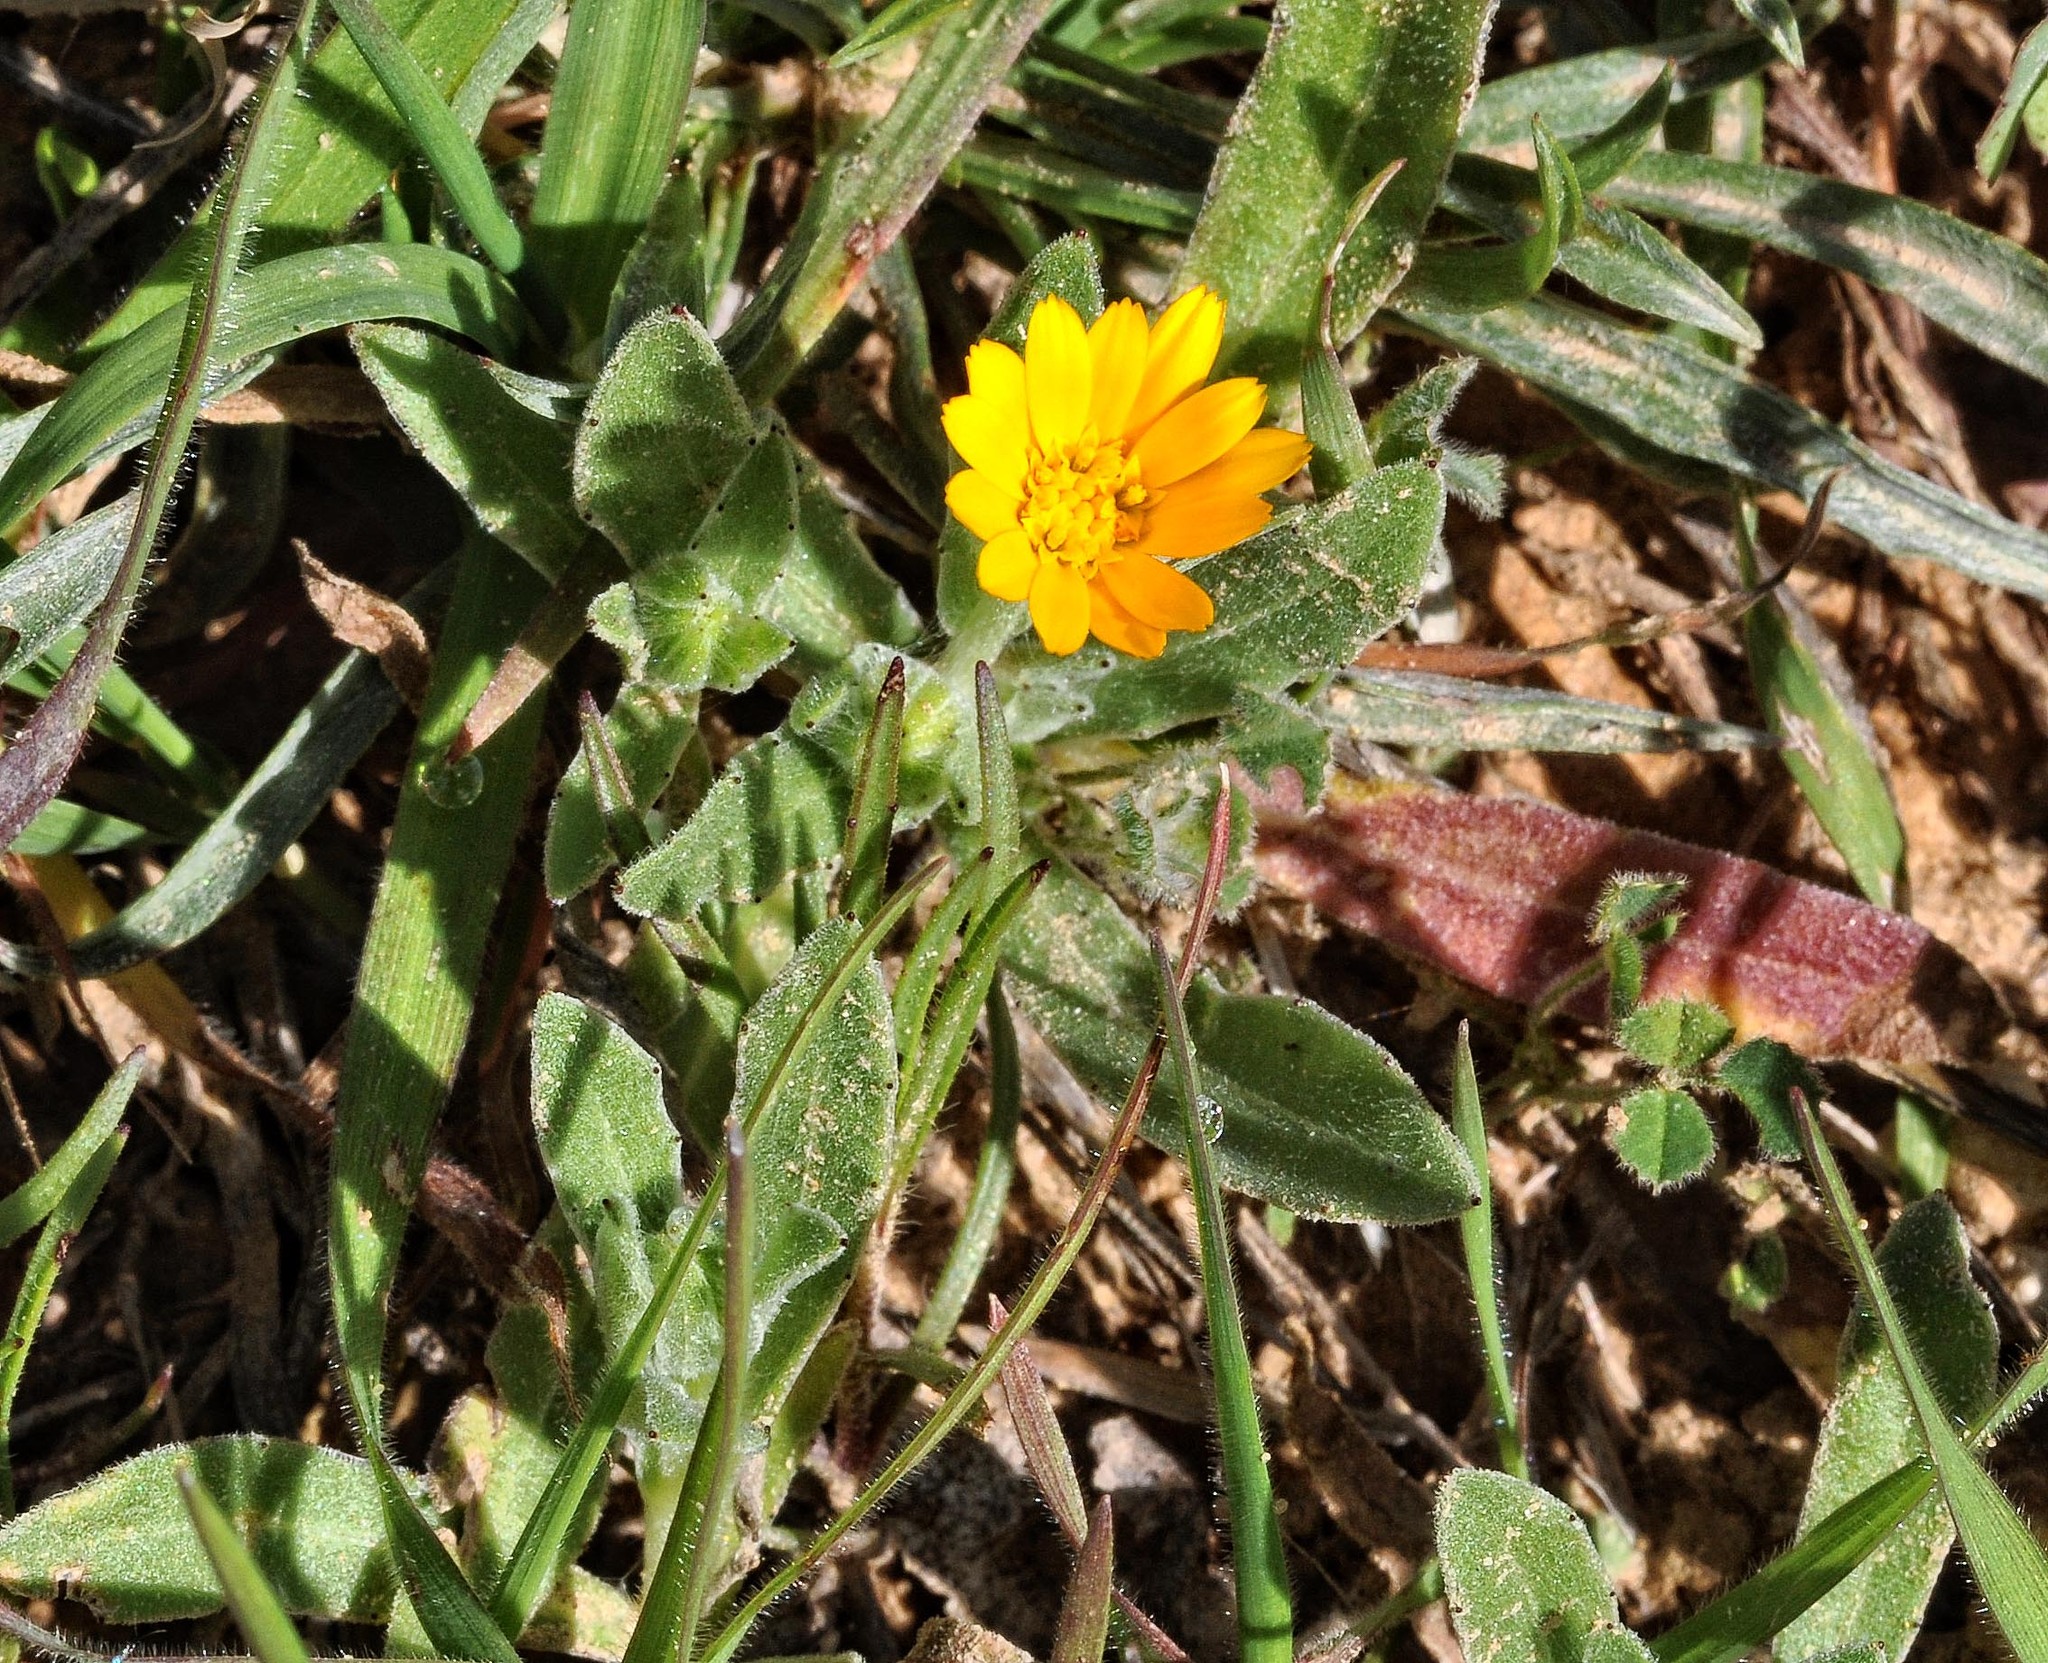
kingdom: Plantae
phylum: Tracheophyta
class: Magnoliopsida
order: Asterales
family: Asteraceae
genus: Calendula
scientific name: Calendula arvensis
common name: Field marigold
